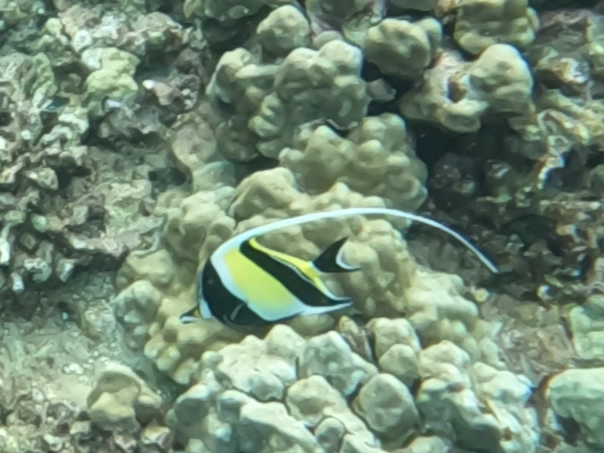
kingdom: Animalia
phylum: Chordata
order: Perciformes
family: Zanclidae
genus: Zanclus
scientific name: Zanclus cornutus
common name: Moorish idol
